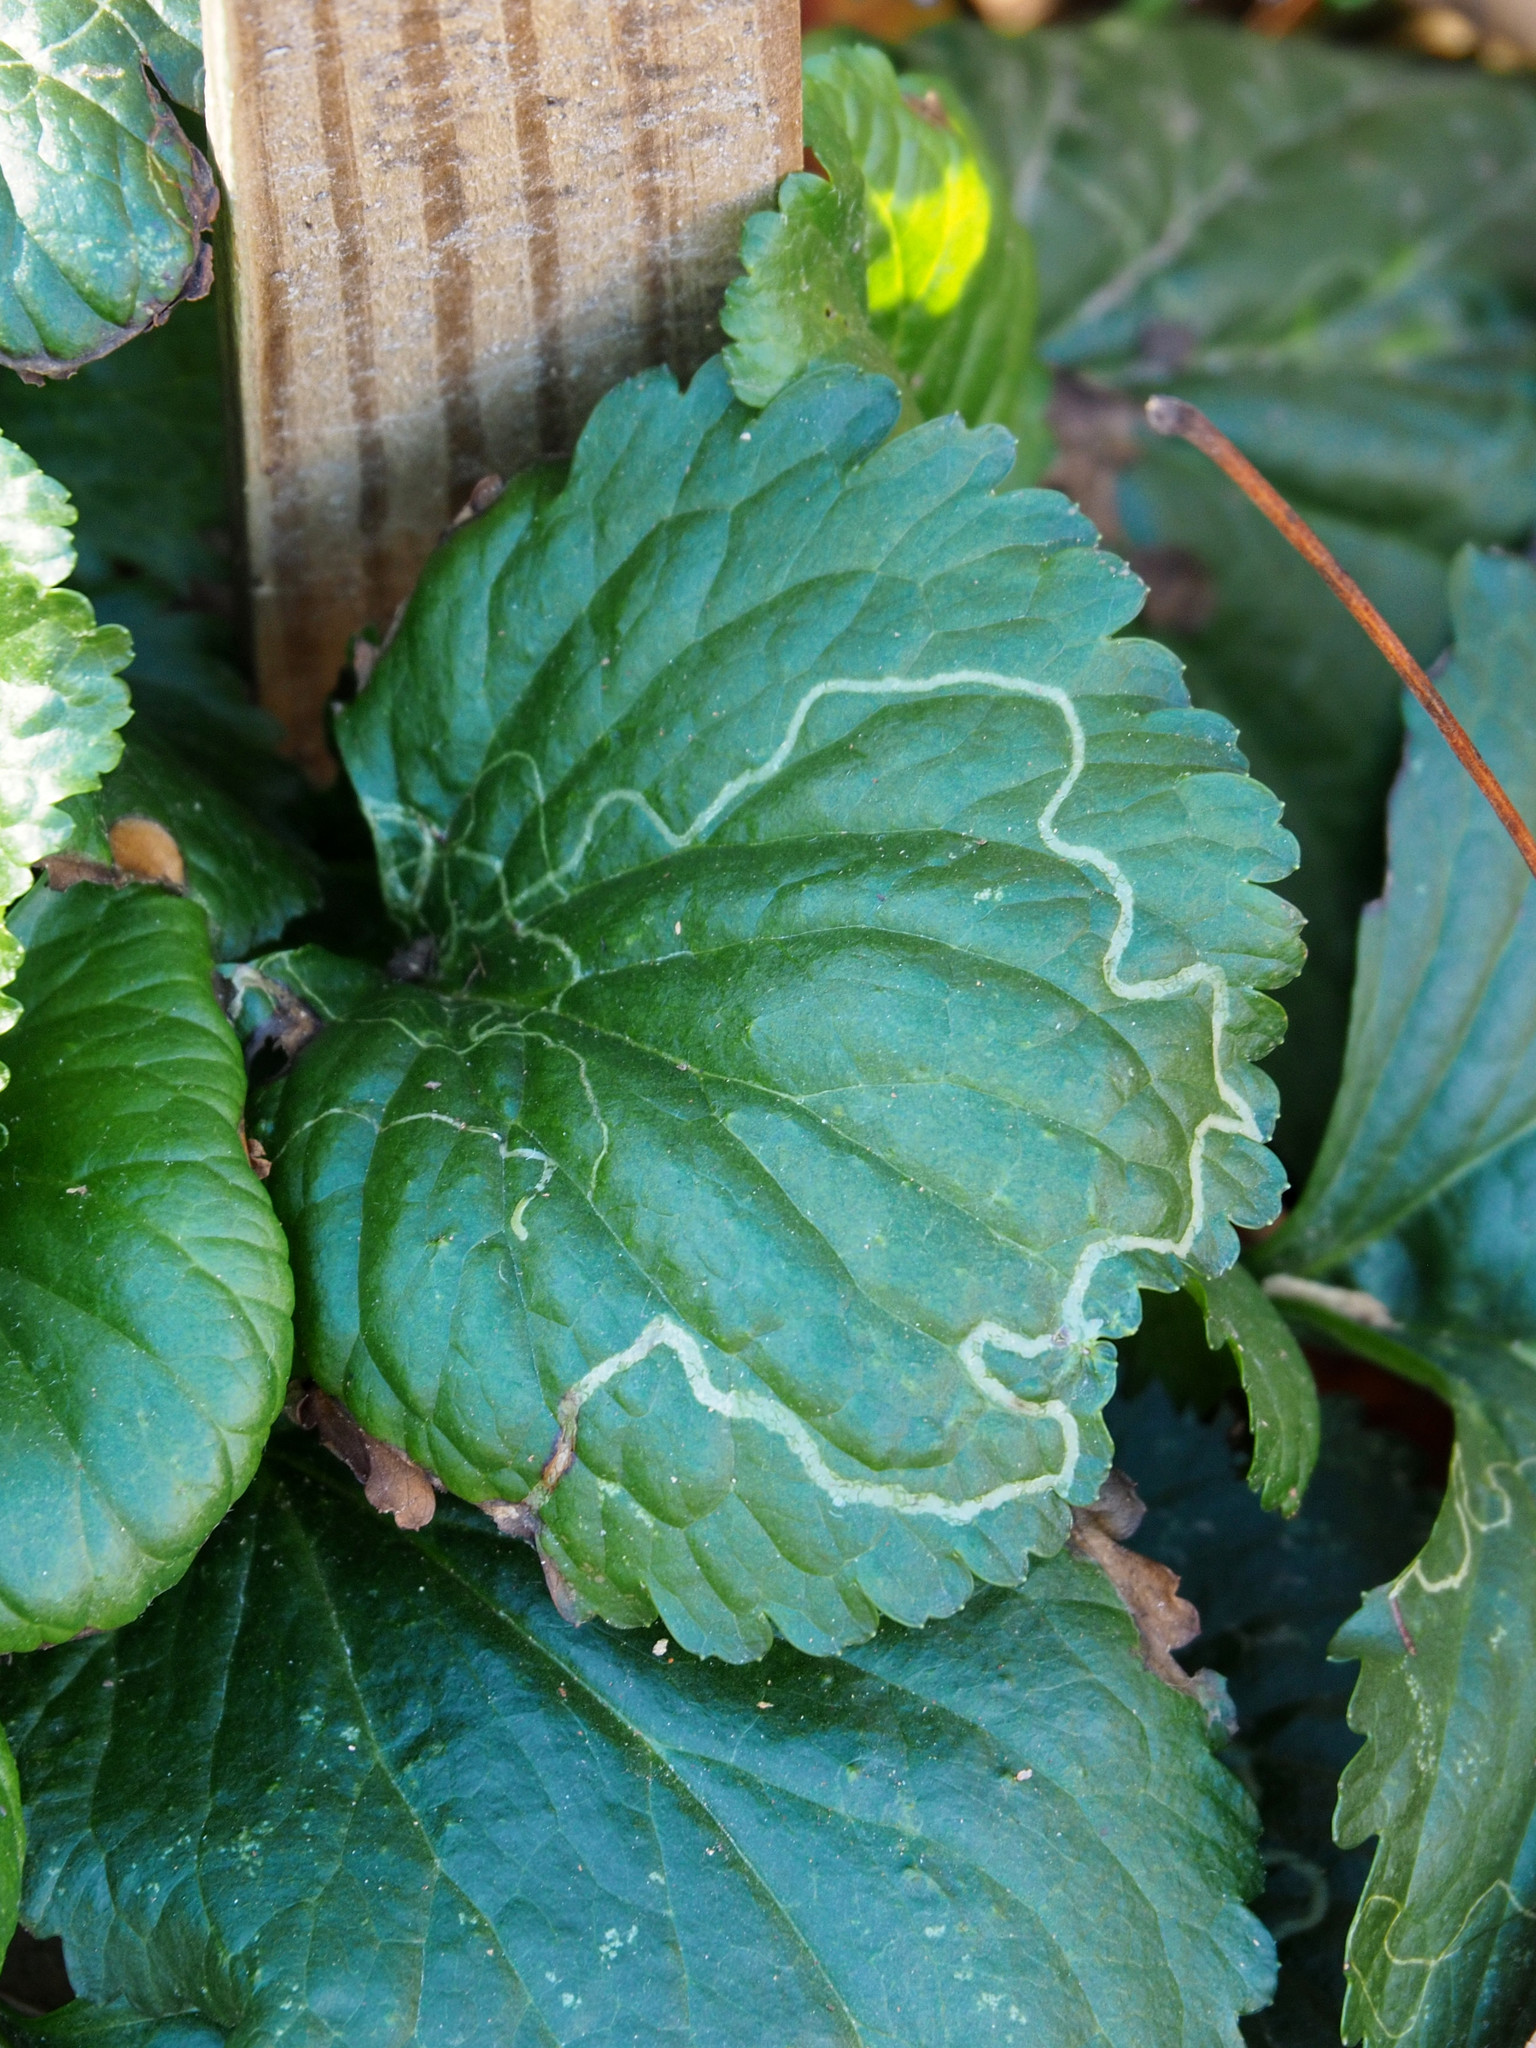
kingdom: Animalia
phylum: Arthropoda
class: Insecta
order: Lepidoptera
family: Gracillariidae
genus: Phyllocnistis
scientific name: Phyllocnistis insignis
